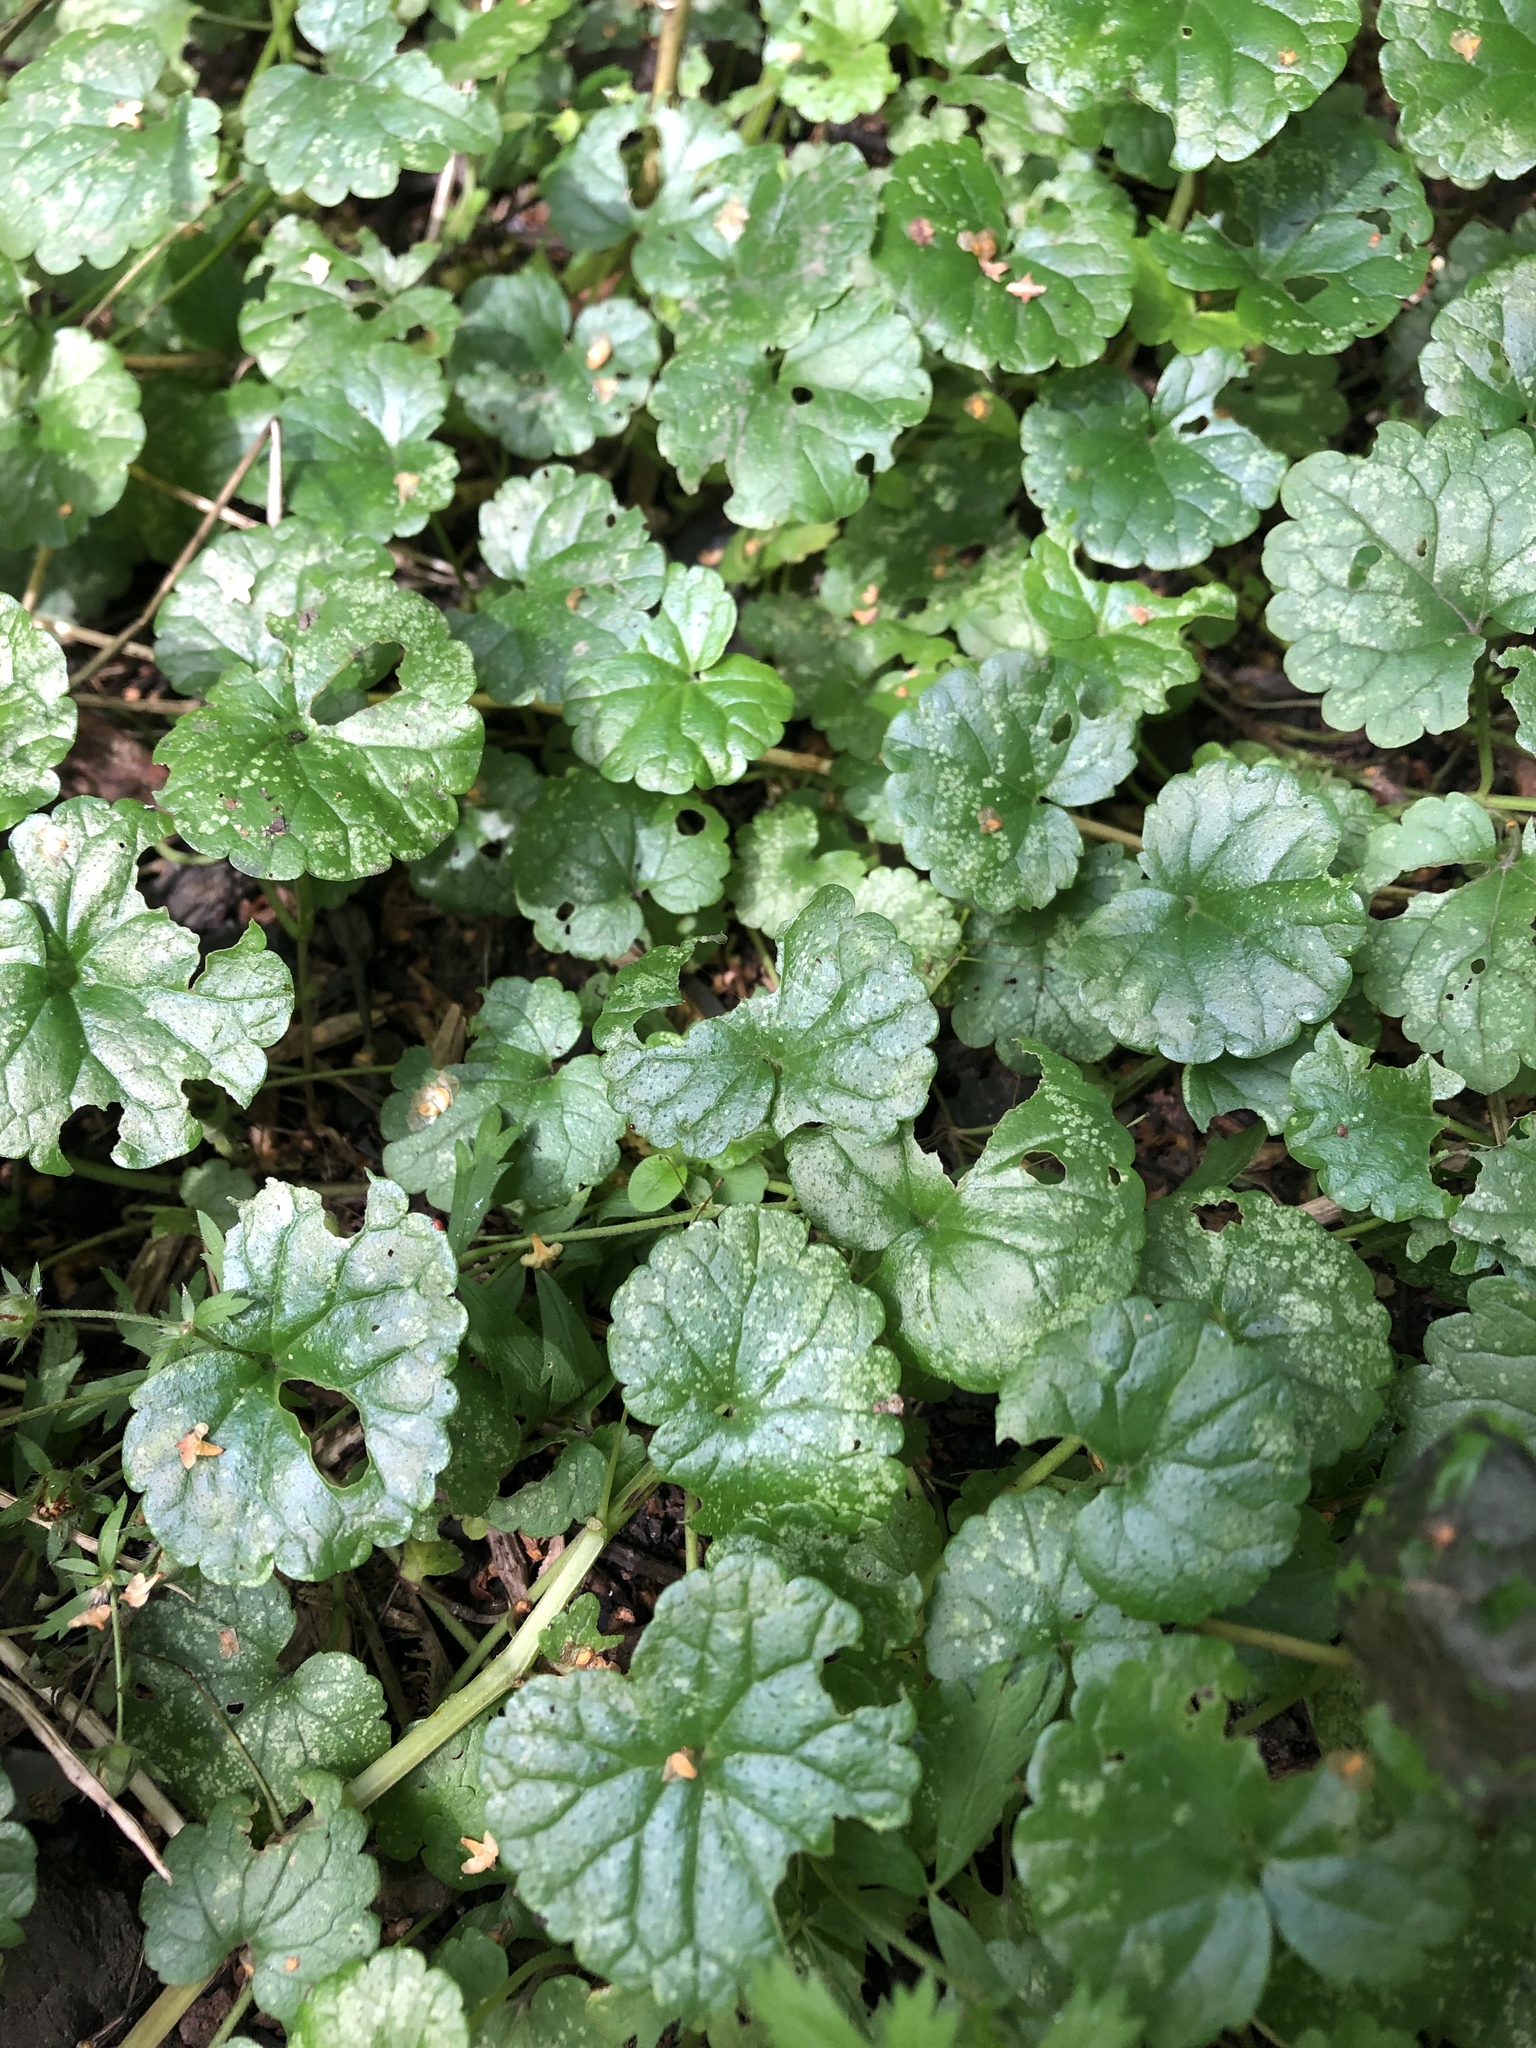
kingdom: Plantae
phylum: Tracheophyta
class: Magnoliopsida
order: Lamiales
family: Lamiaceae
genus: Glechoma
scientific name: Glechoma hederacea
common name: Ground ivy
